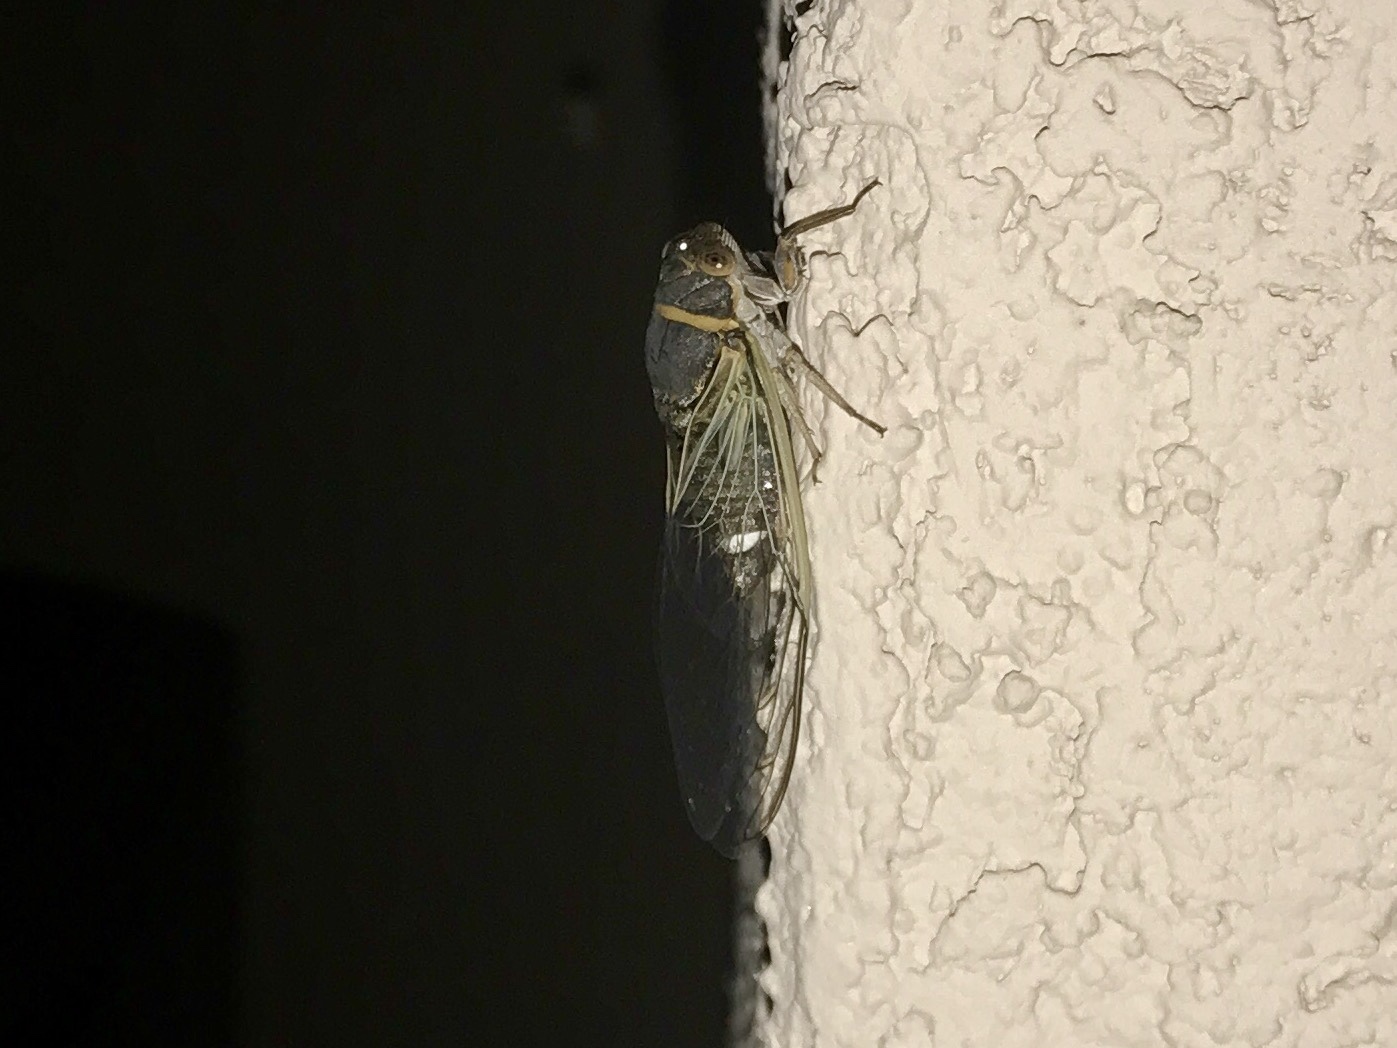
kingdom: Animalia
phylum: Arthropoda
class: Insecta
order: Hemiptera
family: Cicadidae
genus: Diceroprocta
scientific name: Diceroprocta semicincta
